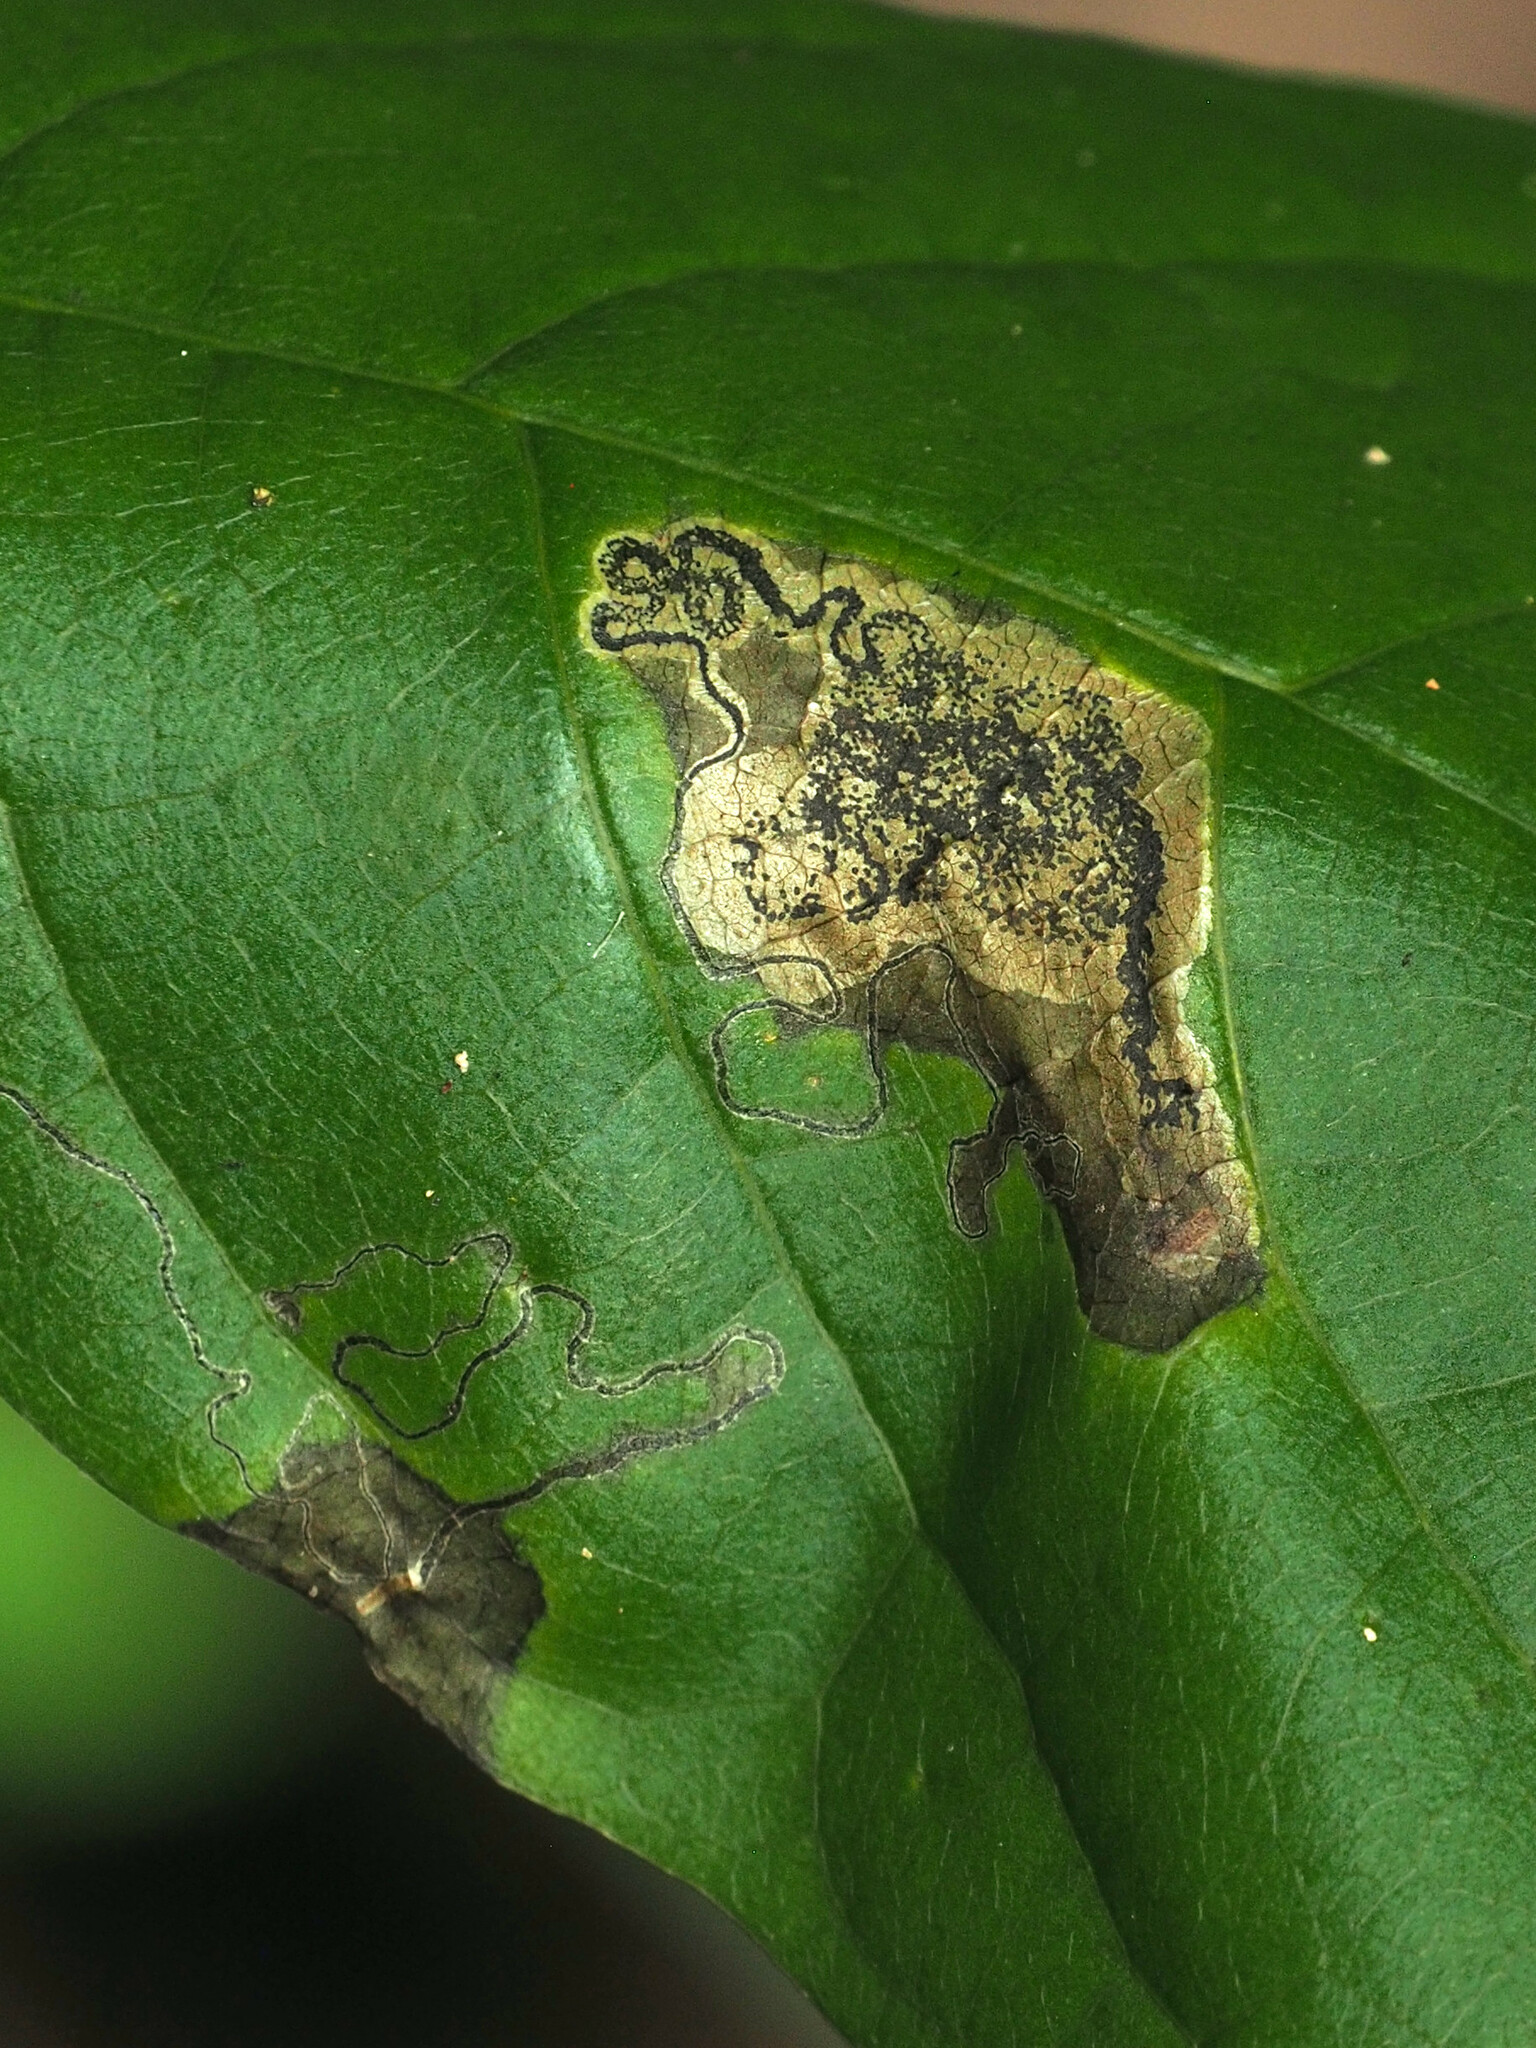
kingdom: Animalia
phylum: Arthropoda
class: Insecta
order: Lepidoptera
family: Nepticulidae
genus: Ectoedemia
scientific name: Ectoedemia nyssaefoliella
